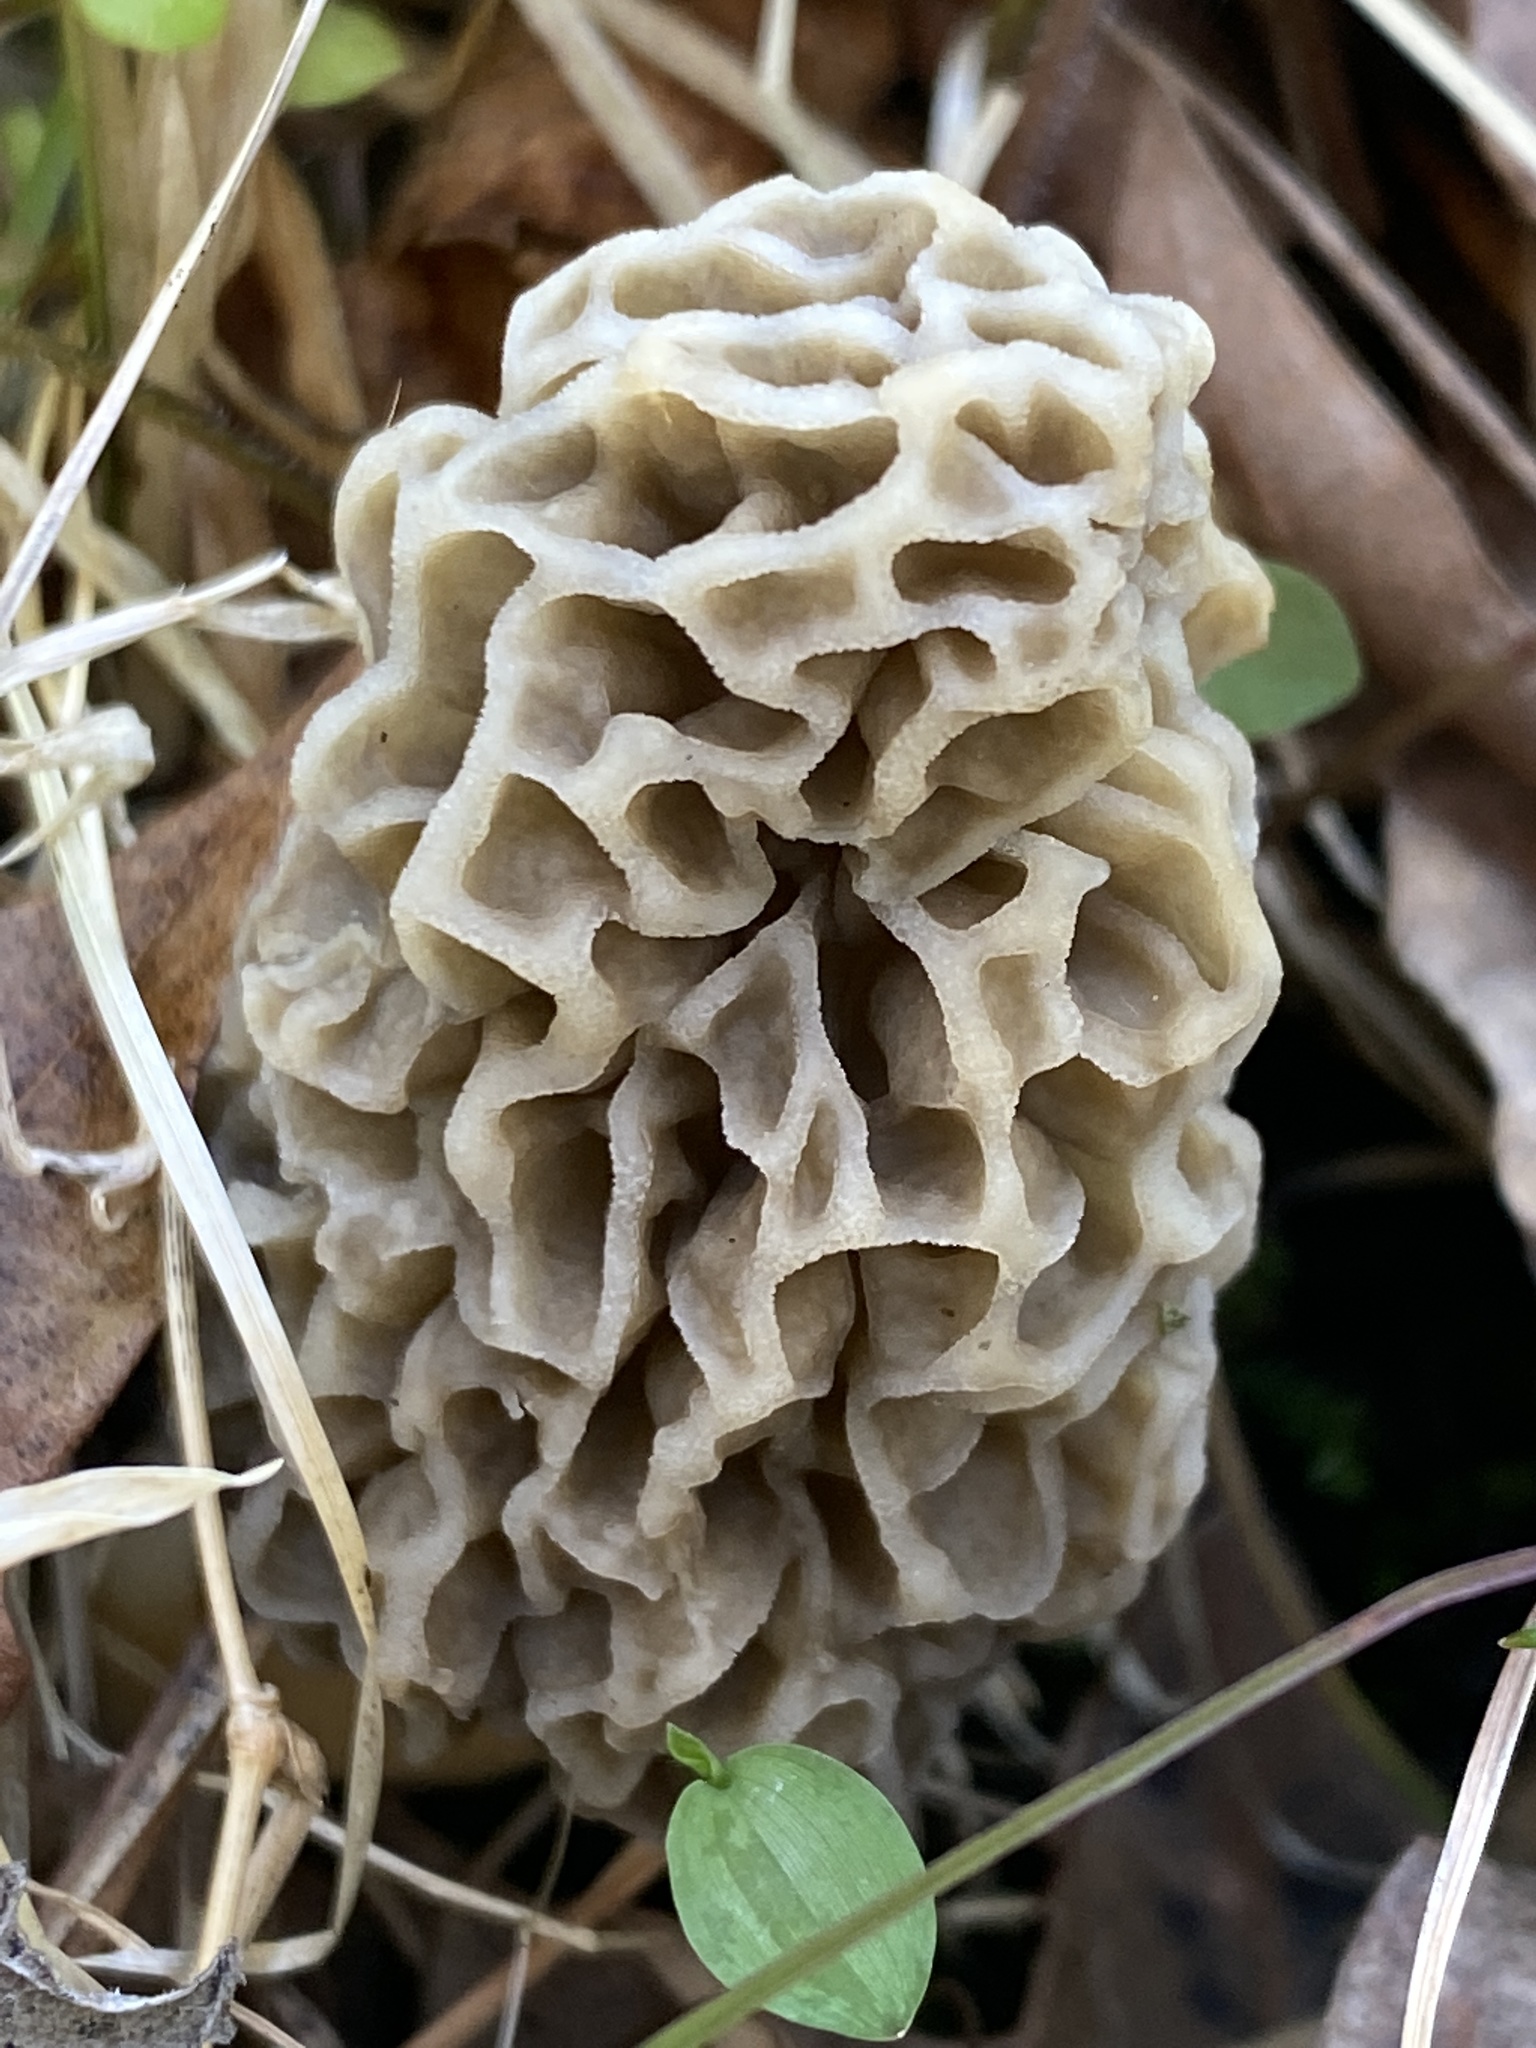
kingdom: Fungi
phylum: Ascomycota
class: Pezizomycetes
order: Pezizales
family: Morchellaceae
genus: Morchella
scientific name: Morchella americana
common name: White morel
